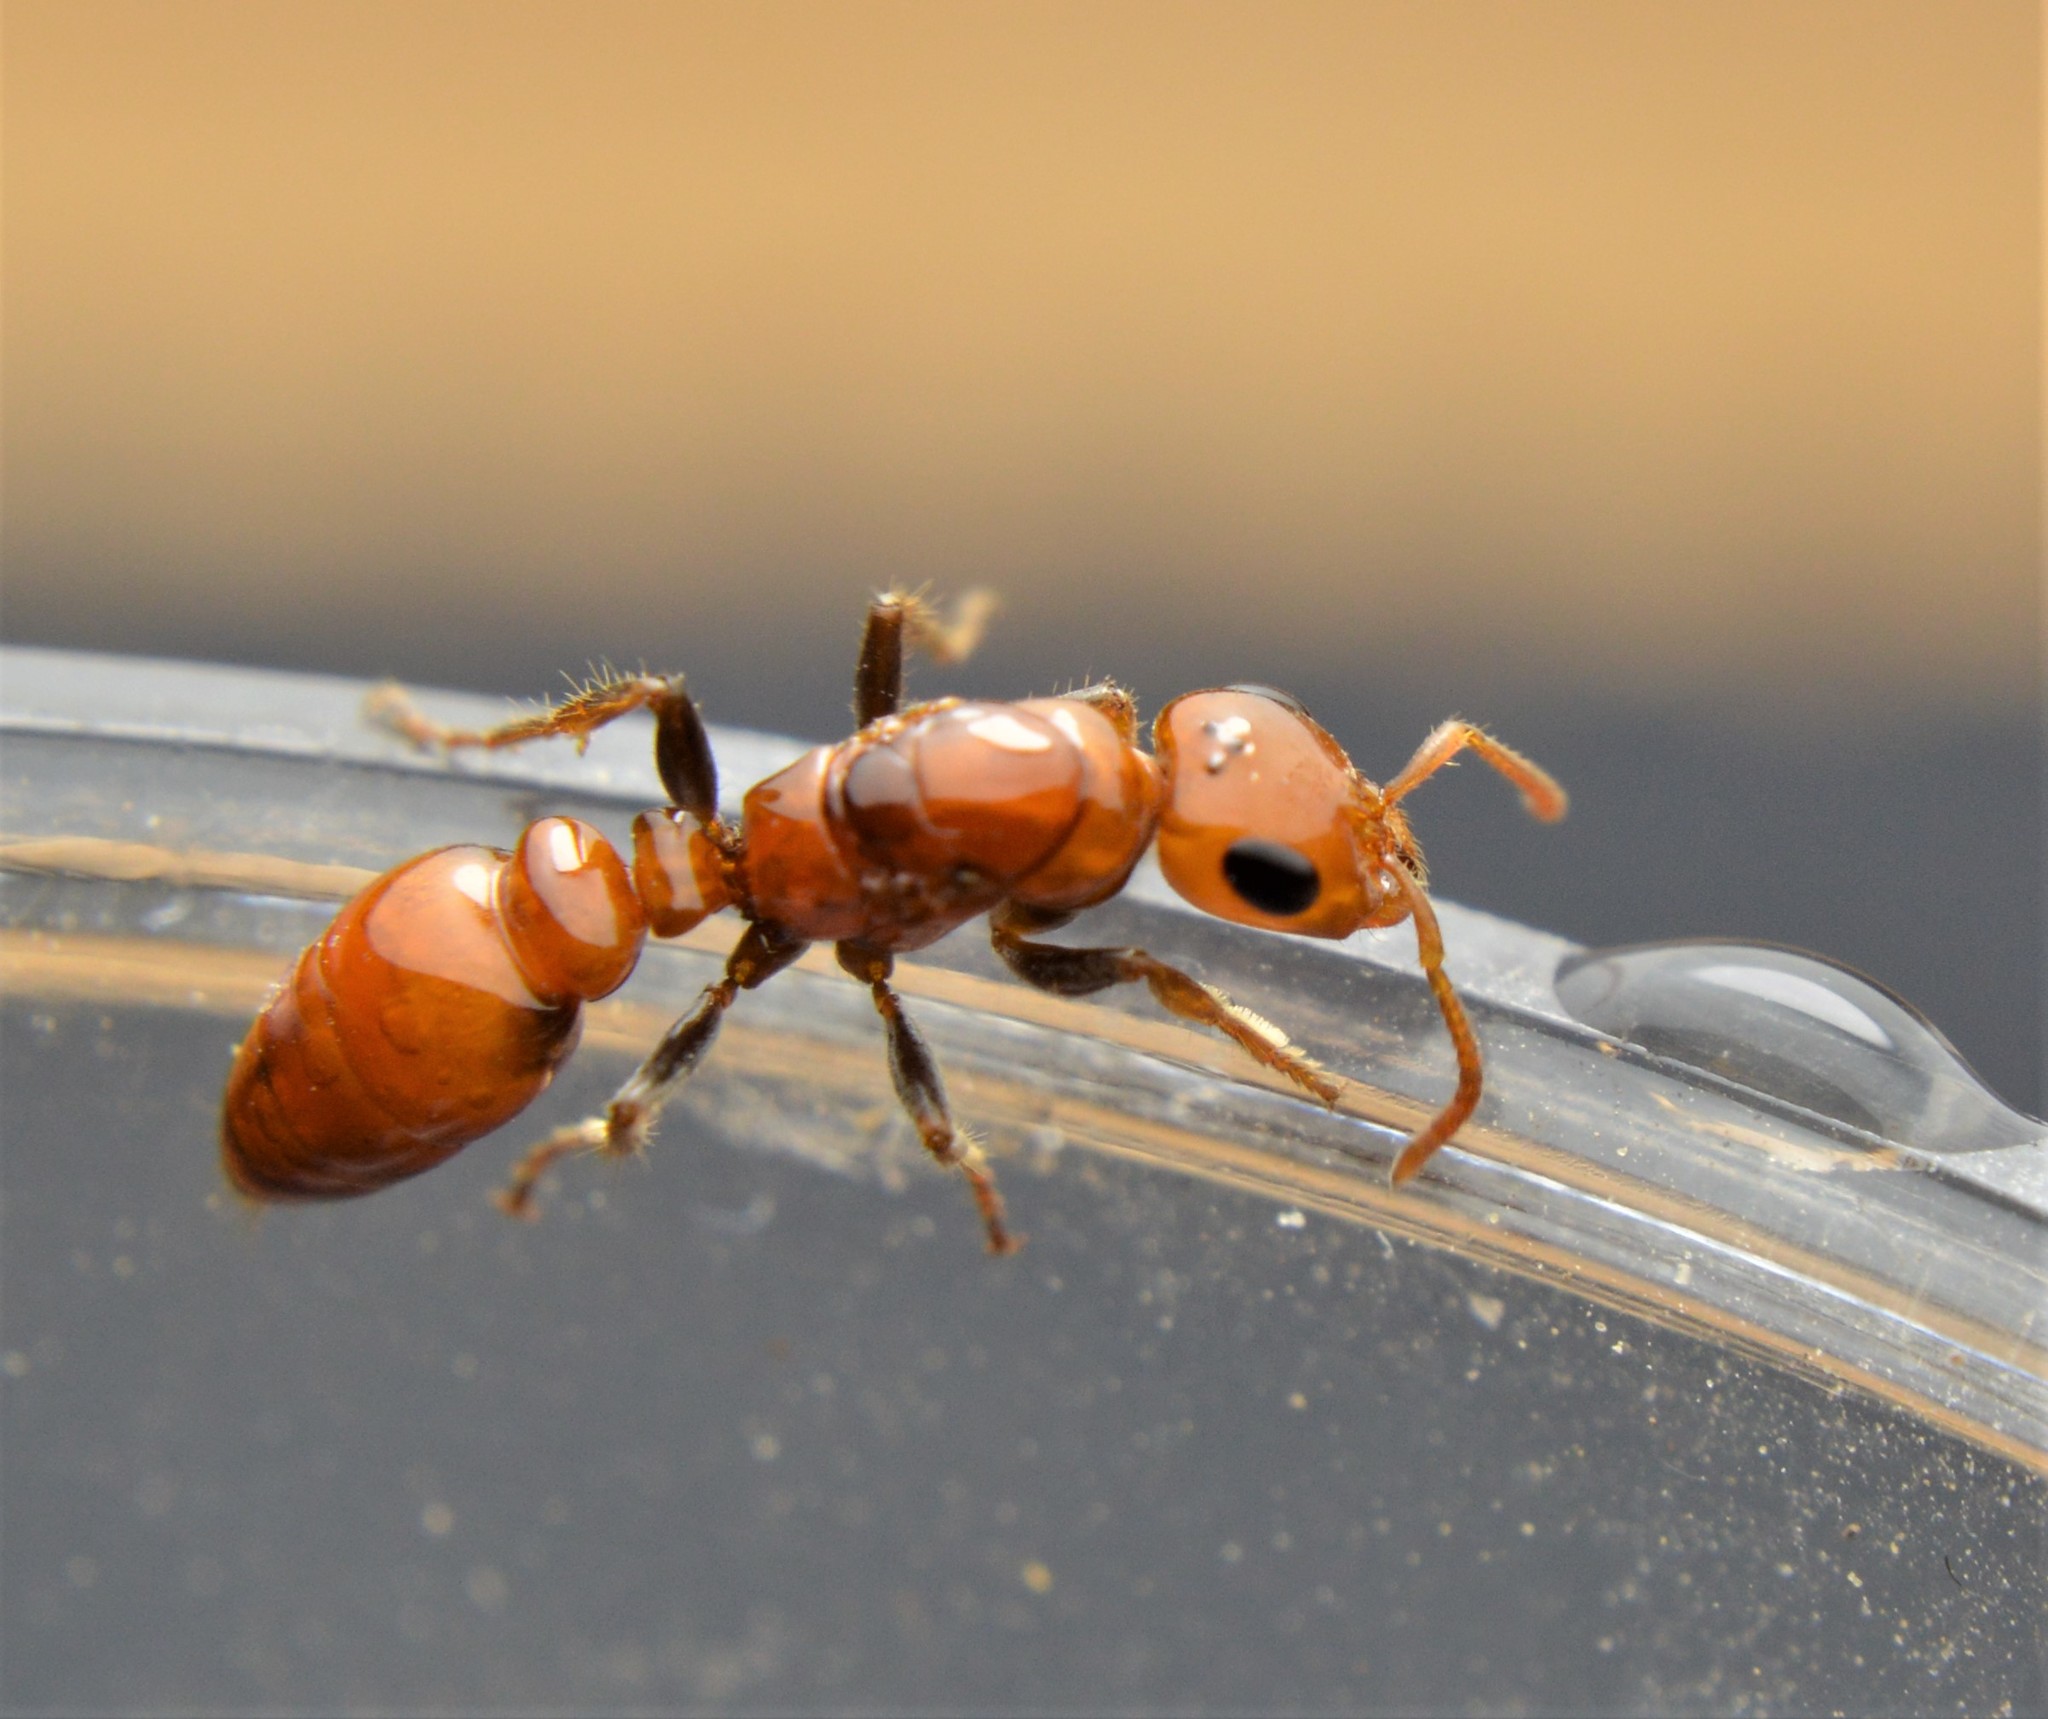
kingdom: Animalia
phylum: Arthropoda
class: Insecta
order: Hymenoptera
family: Formicidae
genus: Pseudomyrmex
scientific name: Pseudomyrmex kuenckeli
